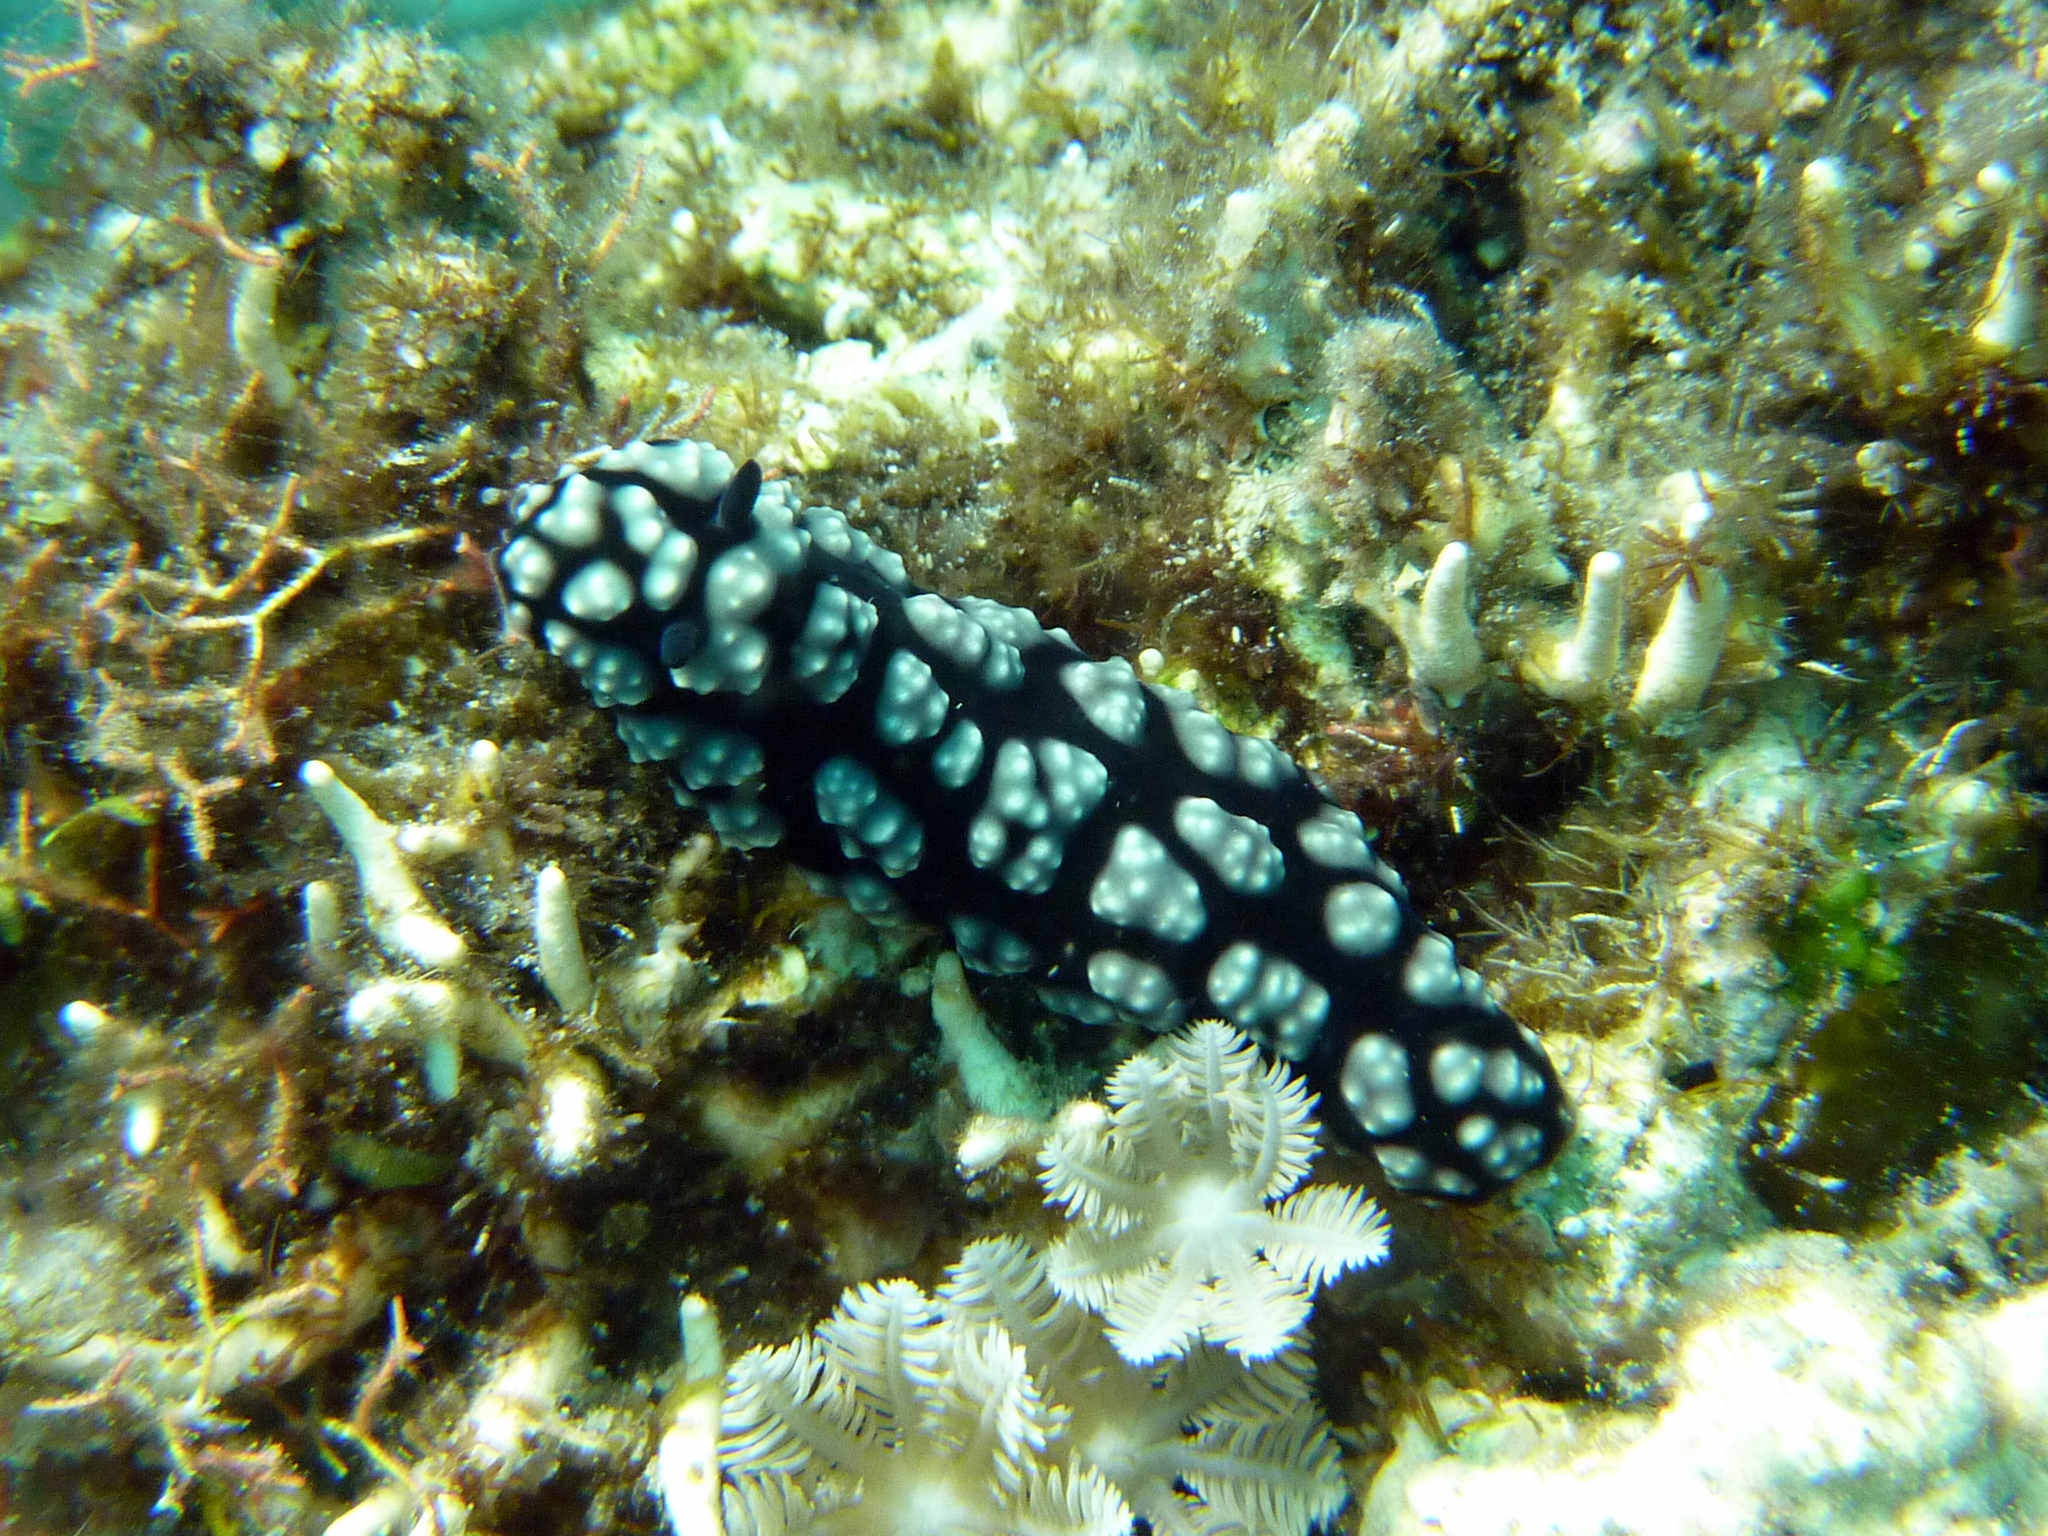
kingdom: Animalia
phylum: Mollusca
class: Gastropoda
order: Nudibranchia
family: Phyllidiidae
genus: Phyllidiella
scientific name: Phyllidiella pustulosa
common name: Pustular phyllidia
